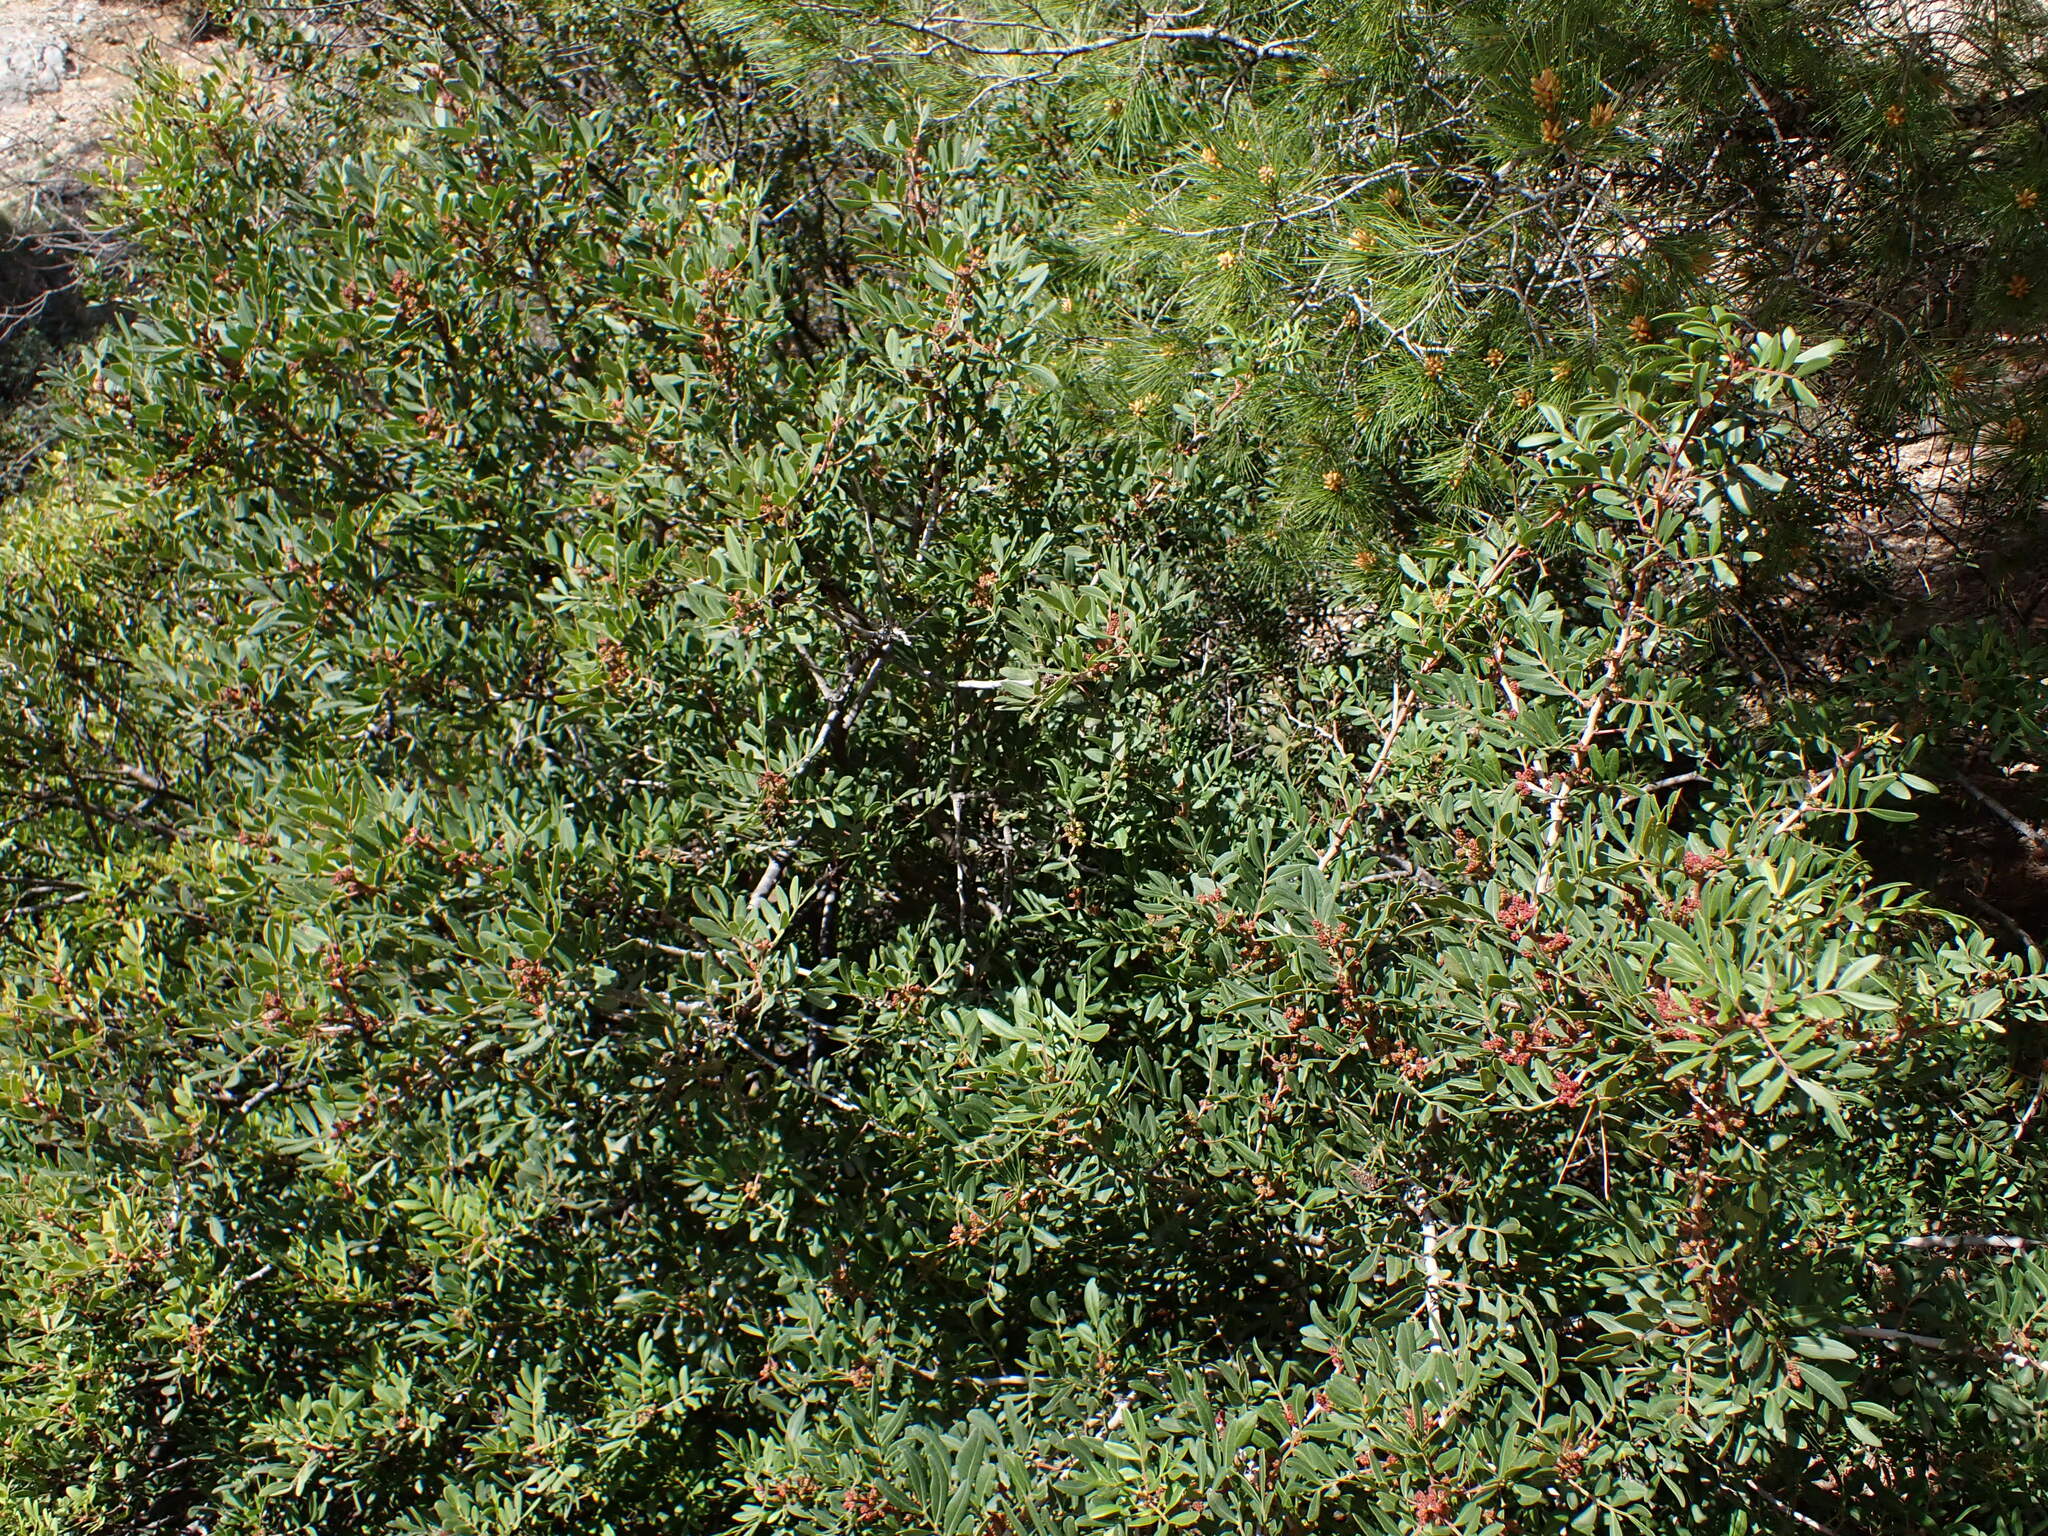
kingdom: Plantae
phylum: Tracheophyta
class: Magnoliopsida
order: Sapindales
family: Anacardiaceae
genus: Pistacia
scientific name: Pistacia lentiscus
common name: Lentisk
